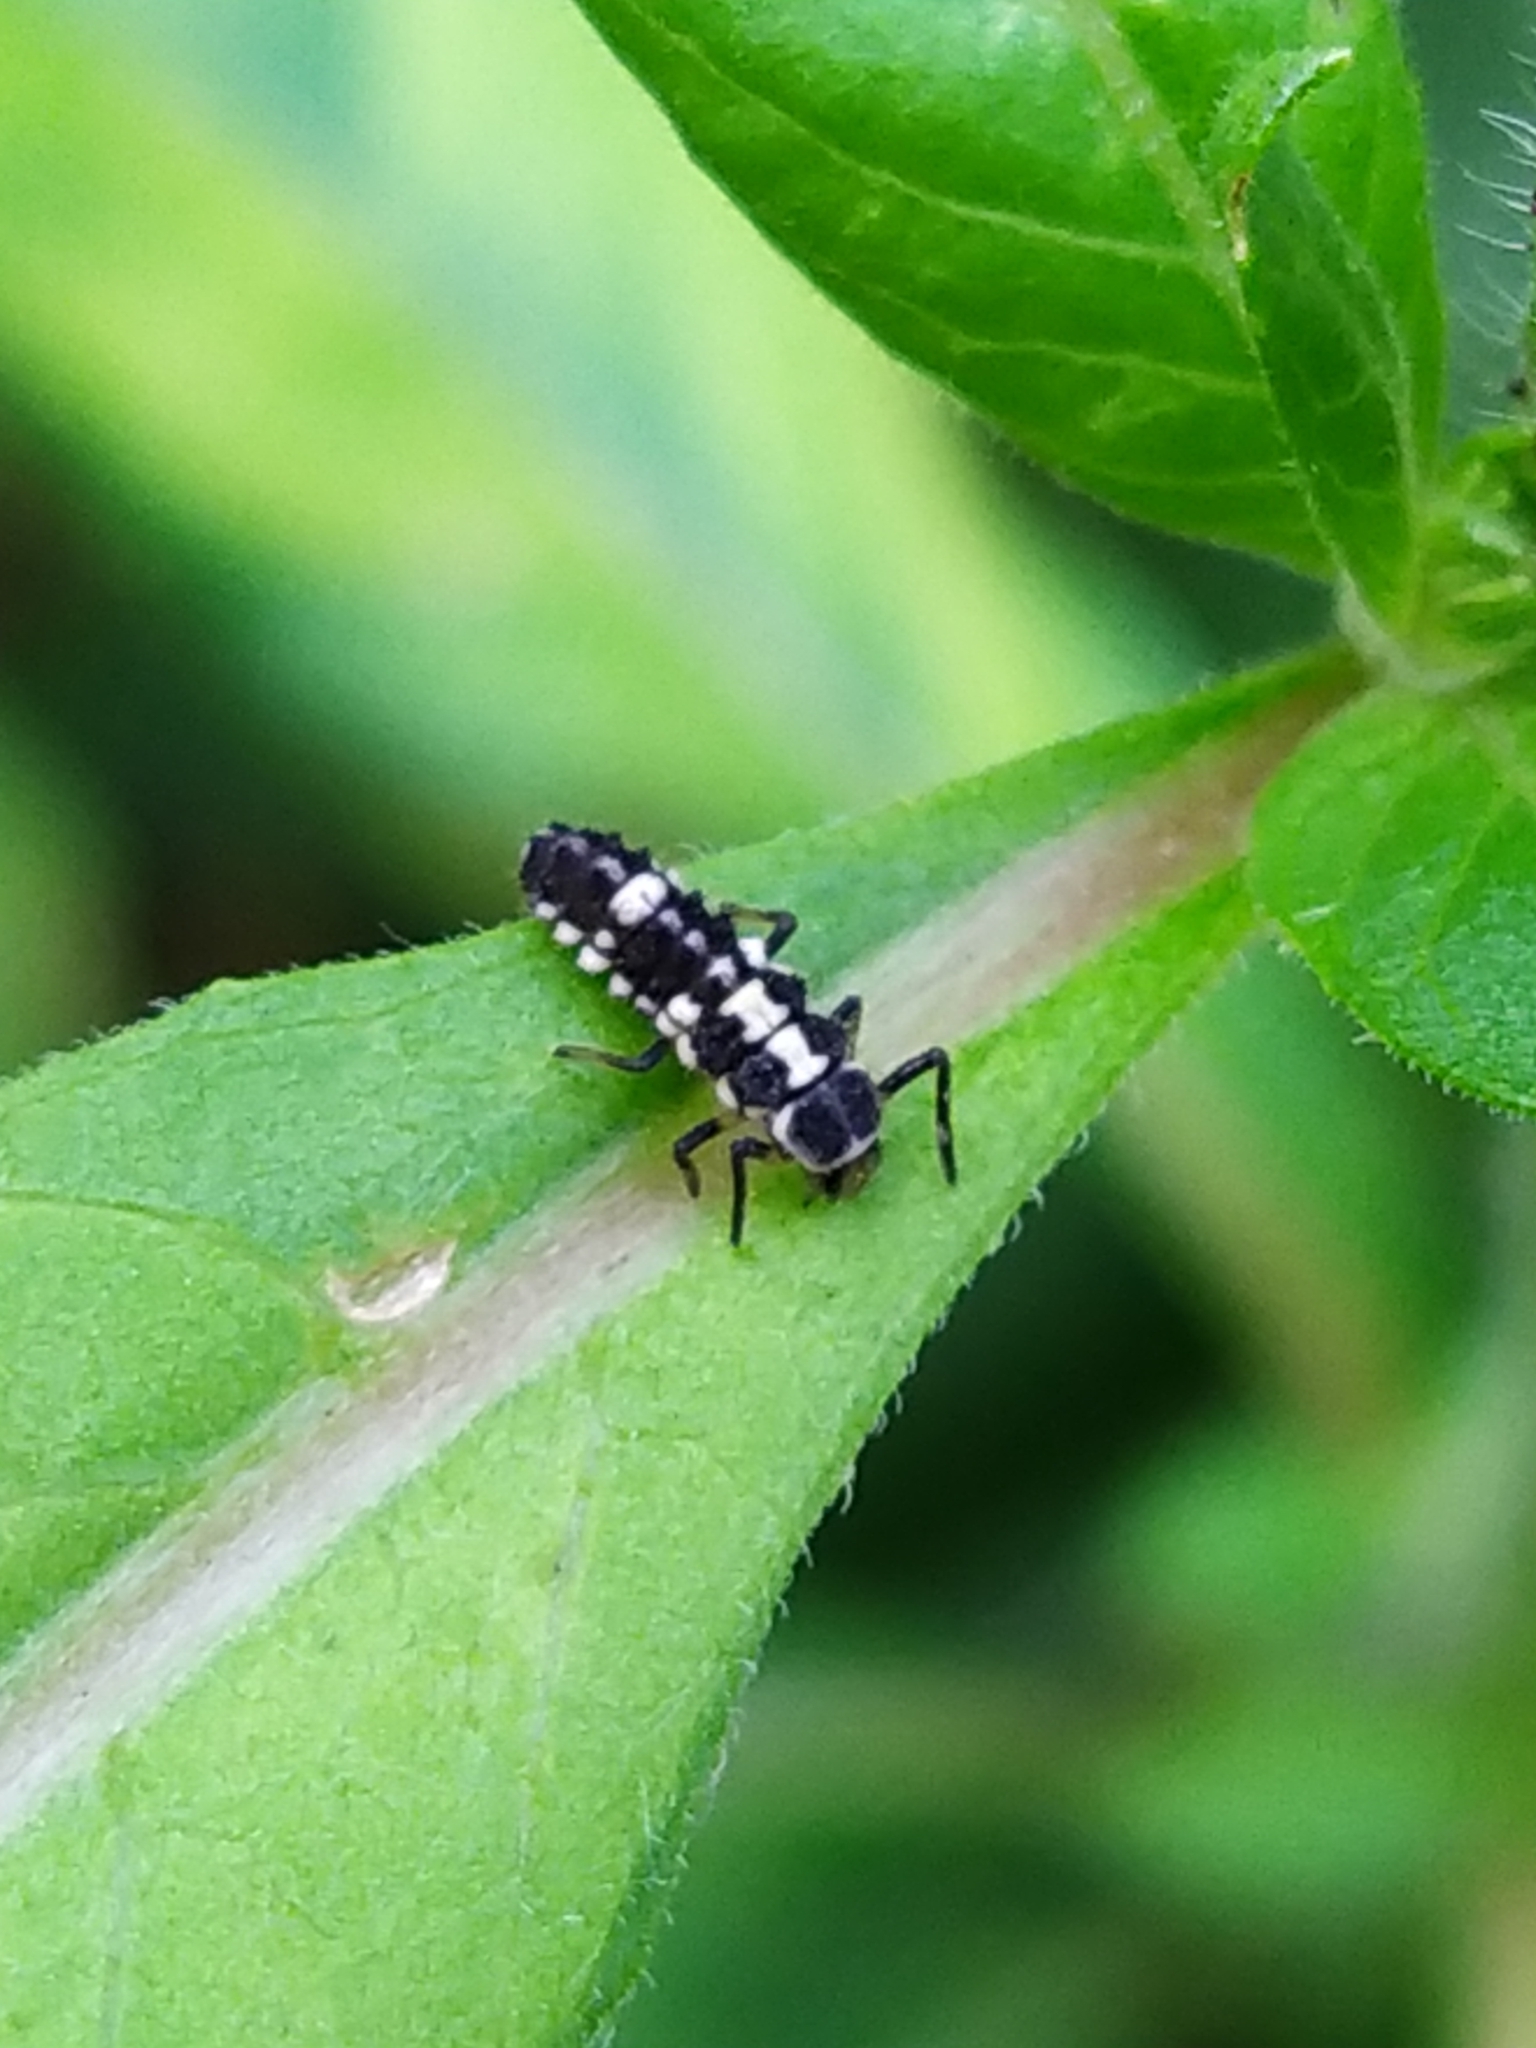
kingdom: Animalia
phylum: Arthropoda
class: Insecta
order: Coleoptera
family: Coccinellidae
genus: Propylaea
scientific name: Propylaea quatuordecimpunctata
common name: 14-spotted ladybird beetle
